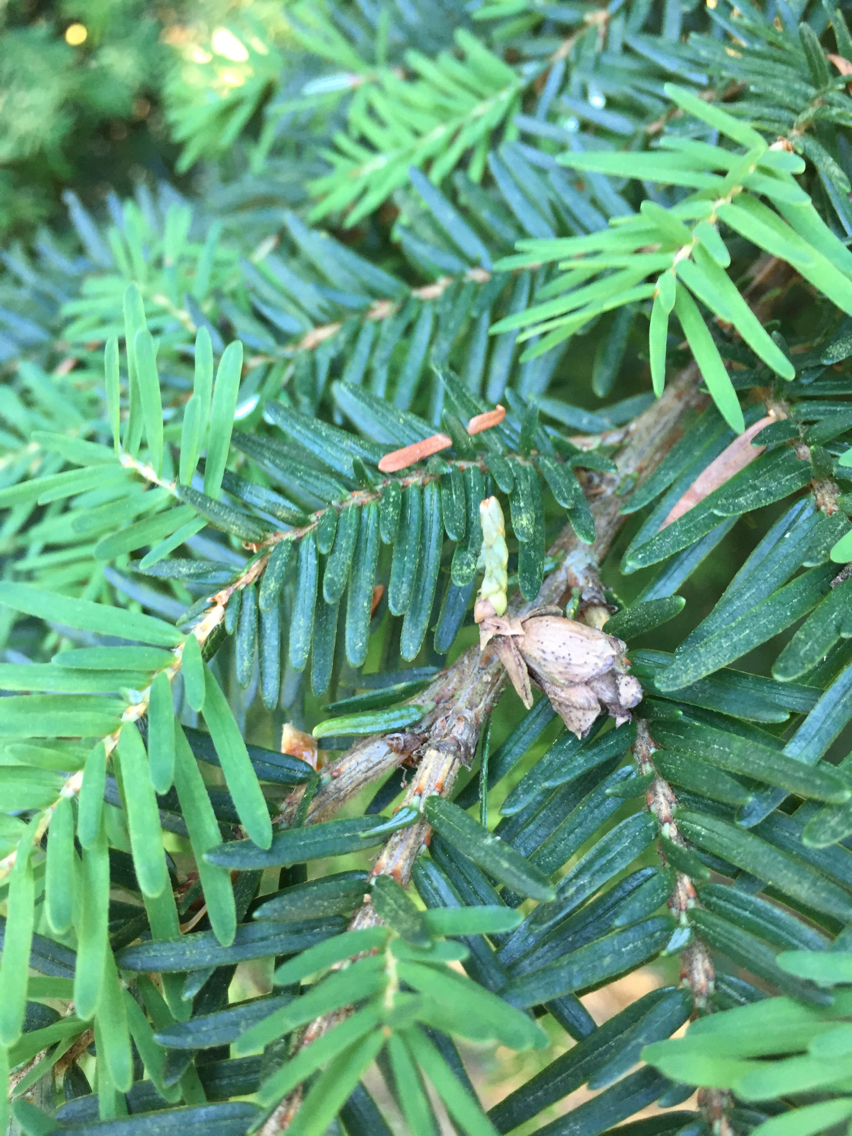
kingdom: Plantae
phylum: Tracheophyta
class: Pinopsida
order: Pinales
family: Pinaceae
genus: Tsuga
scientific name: Tsuga heterophylla
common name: Western hemlock
